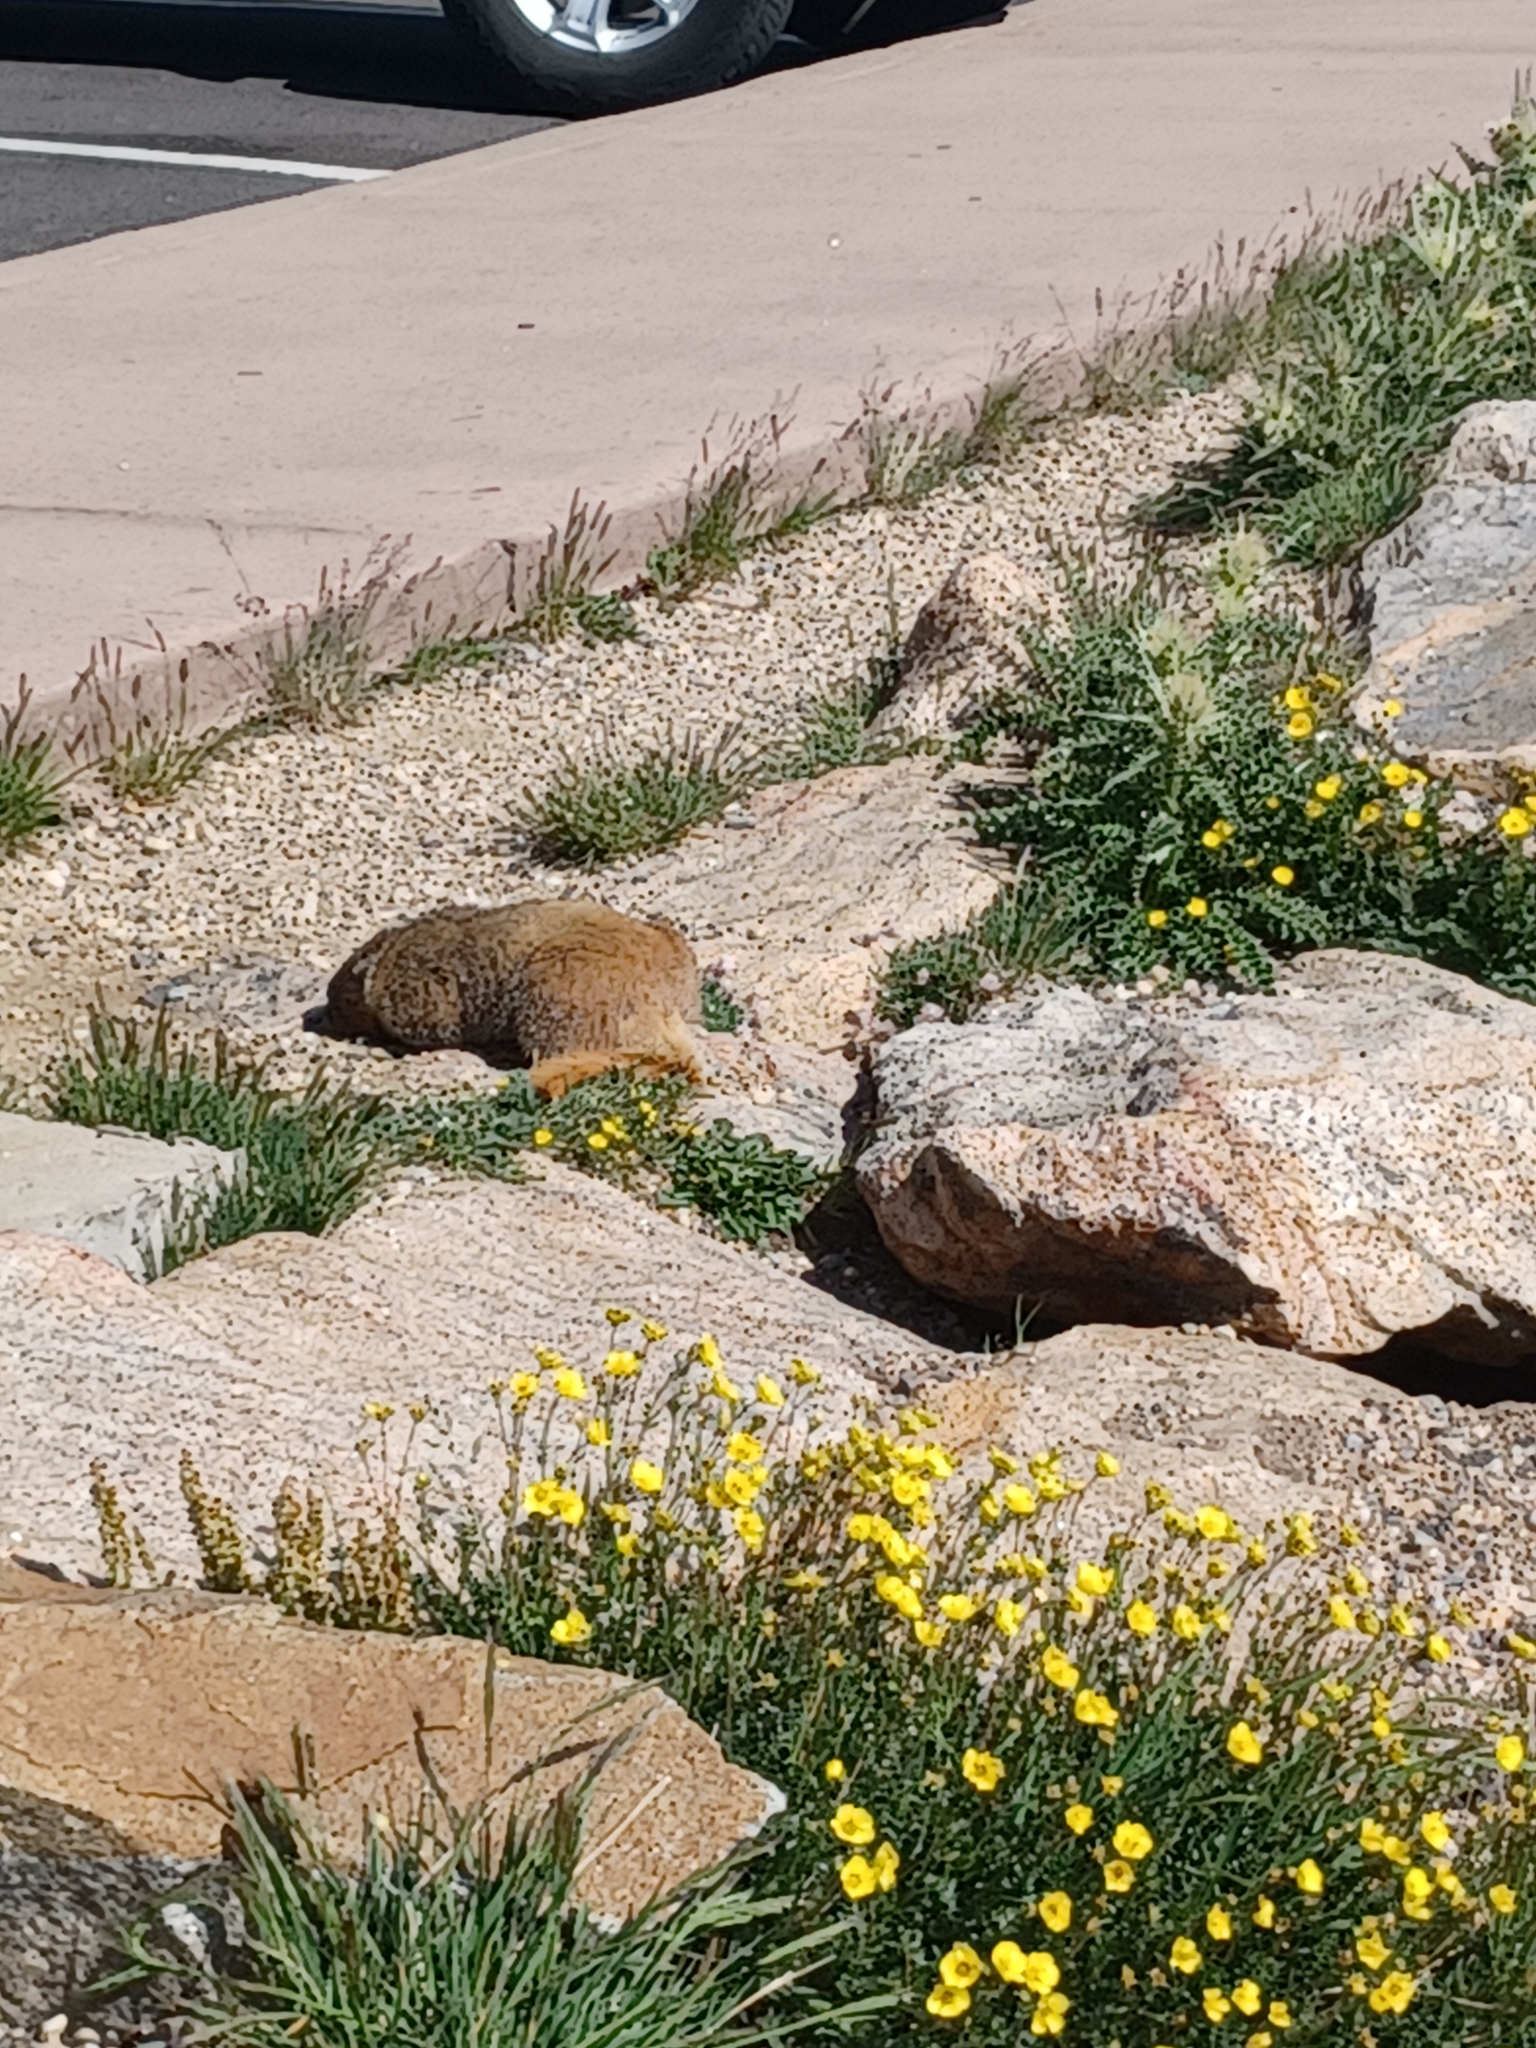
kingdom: Animalia
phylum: Chordata
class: Mammalia
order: Rodentia
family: Sciuridae
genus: Marmota
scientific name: Marmota flaviventris
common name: Yellow-bellied marmot
